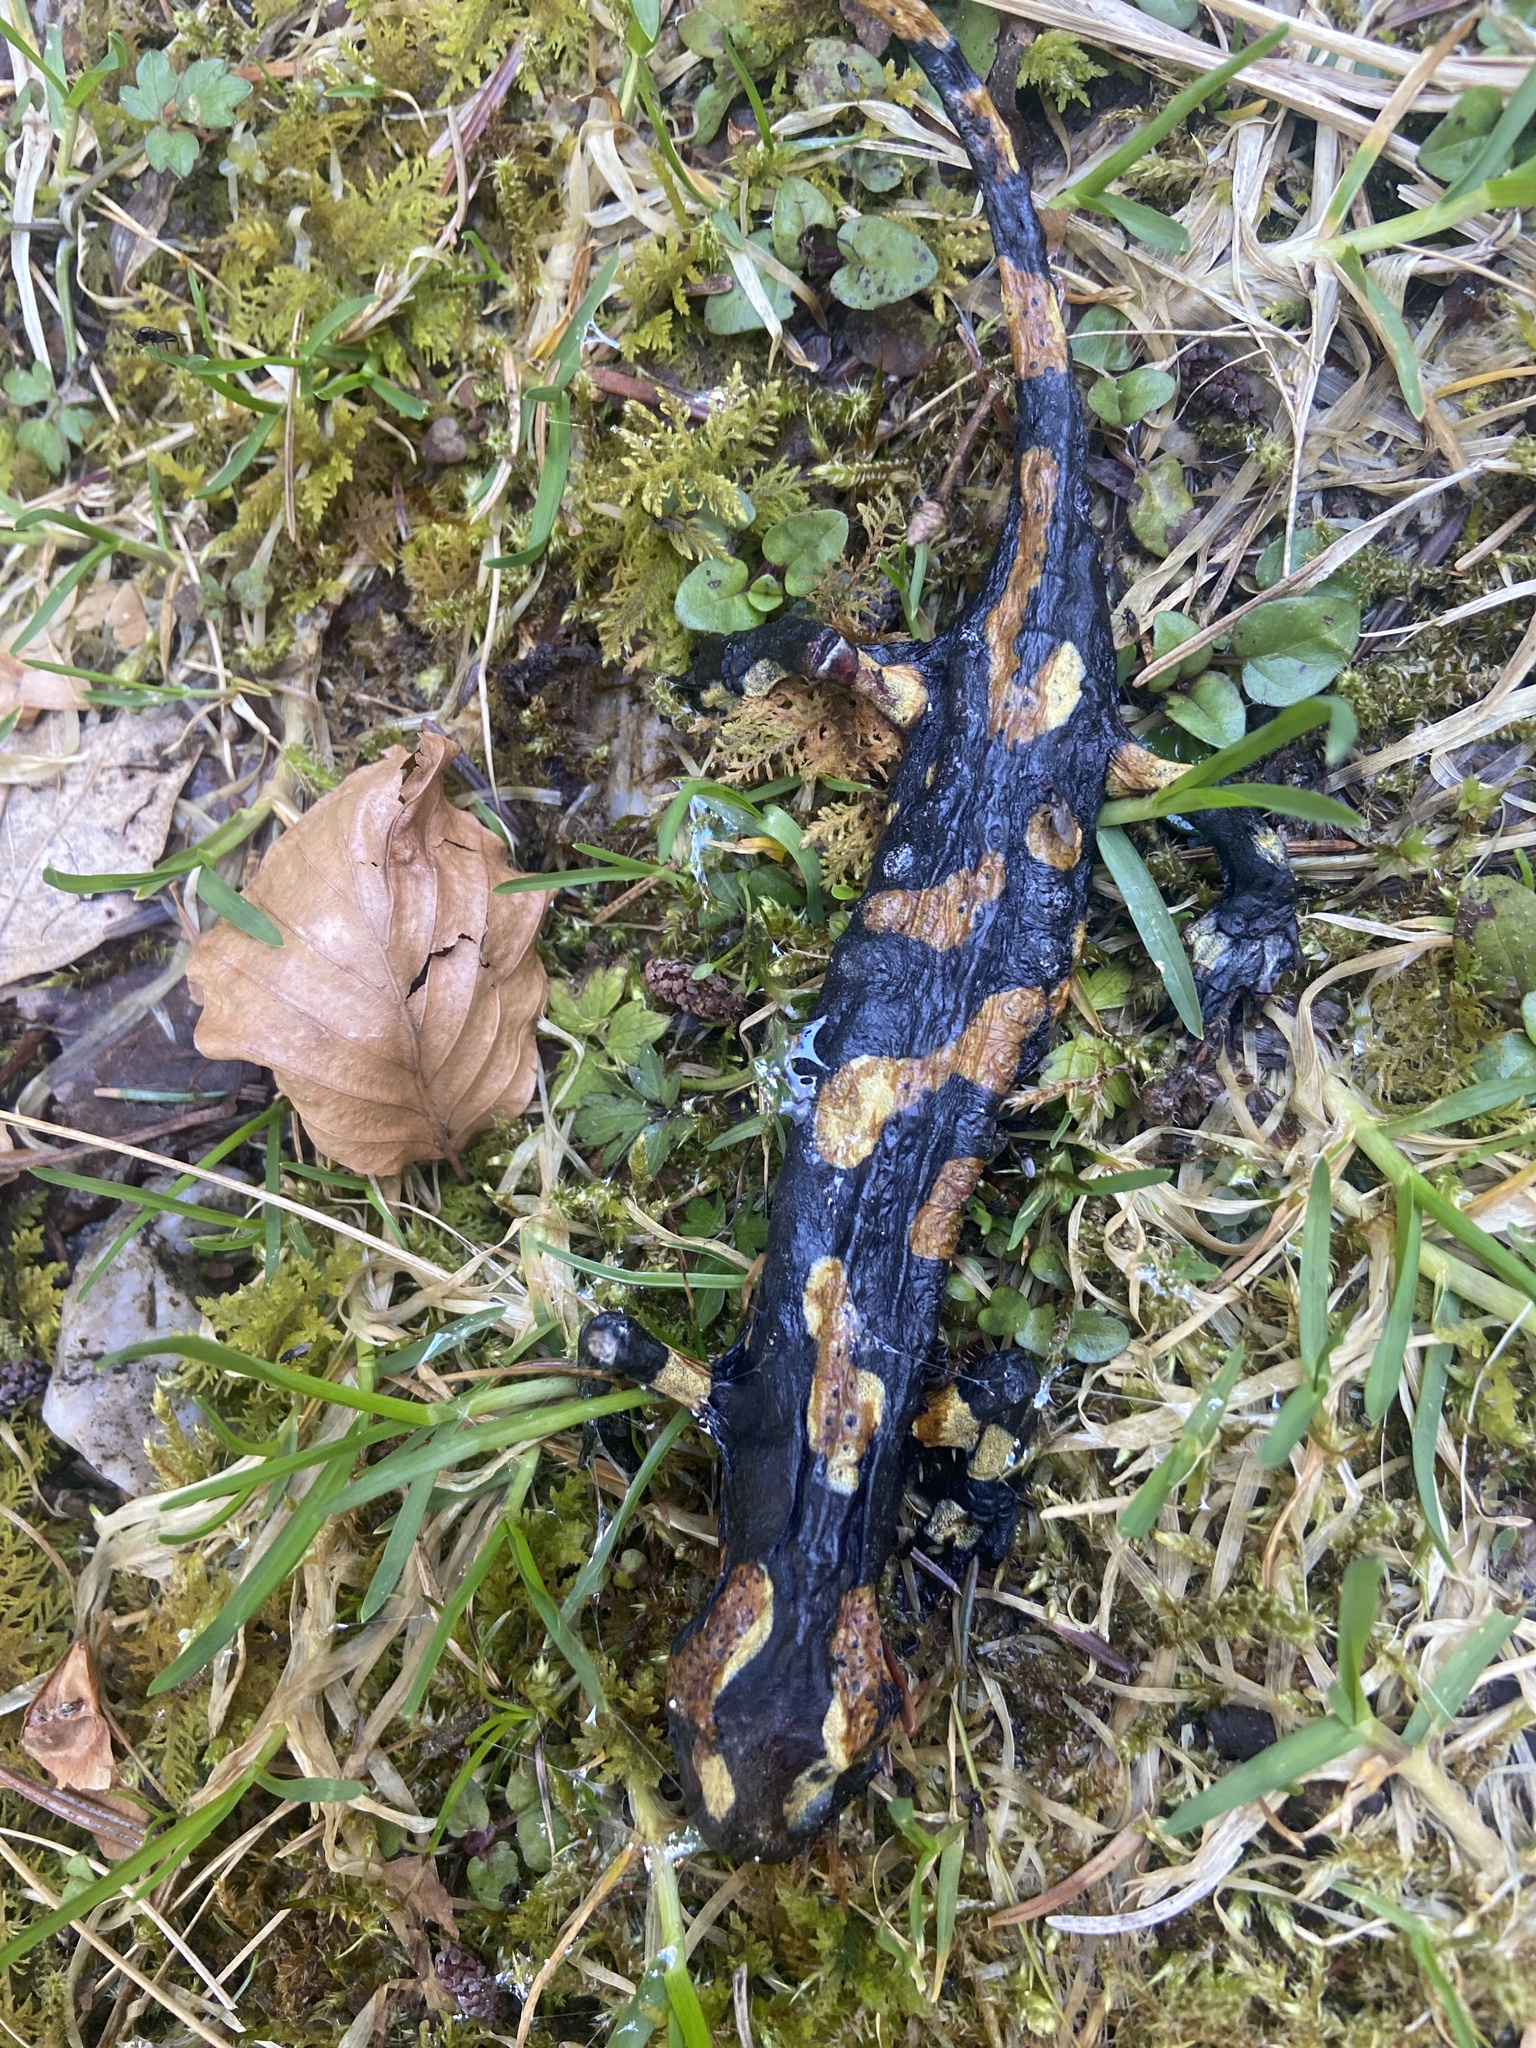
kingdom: Animalia
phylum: Chordata
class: Amphibia
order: Caudata
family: Salamandridae
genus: Salamandra
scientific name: Salamandra salamandra
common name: Fire salamander
